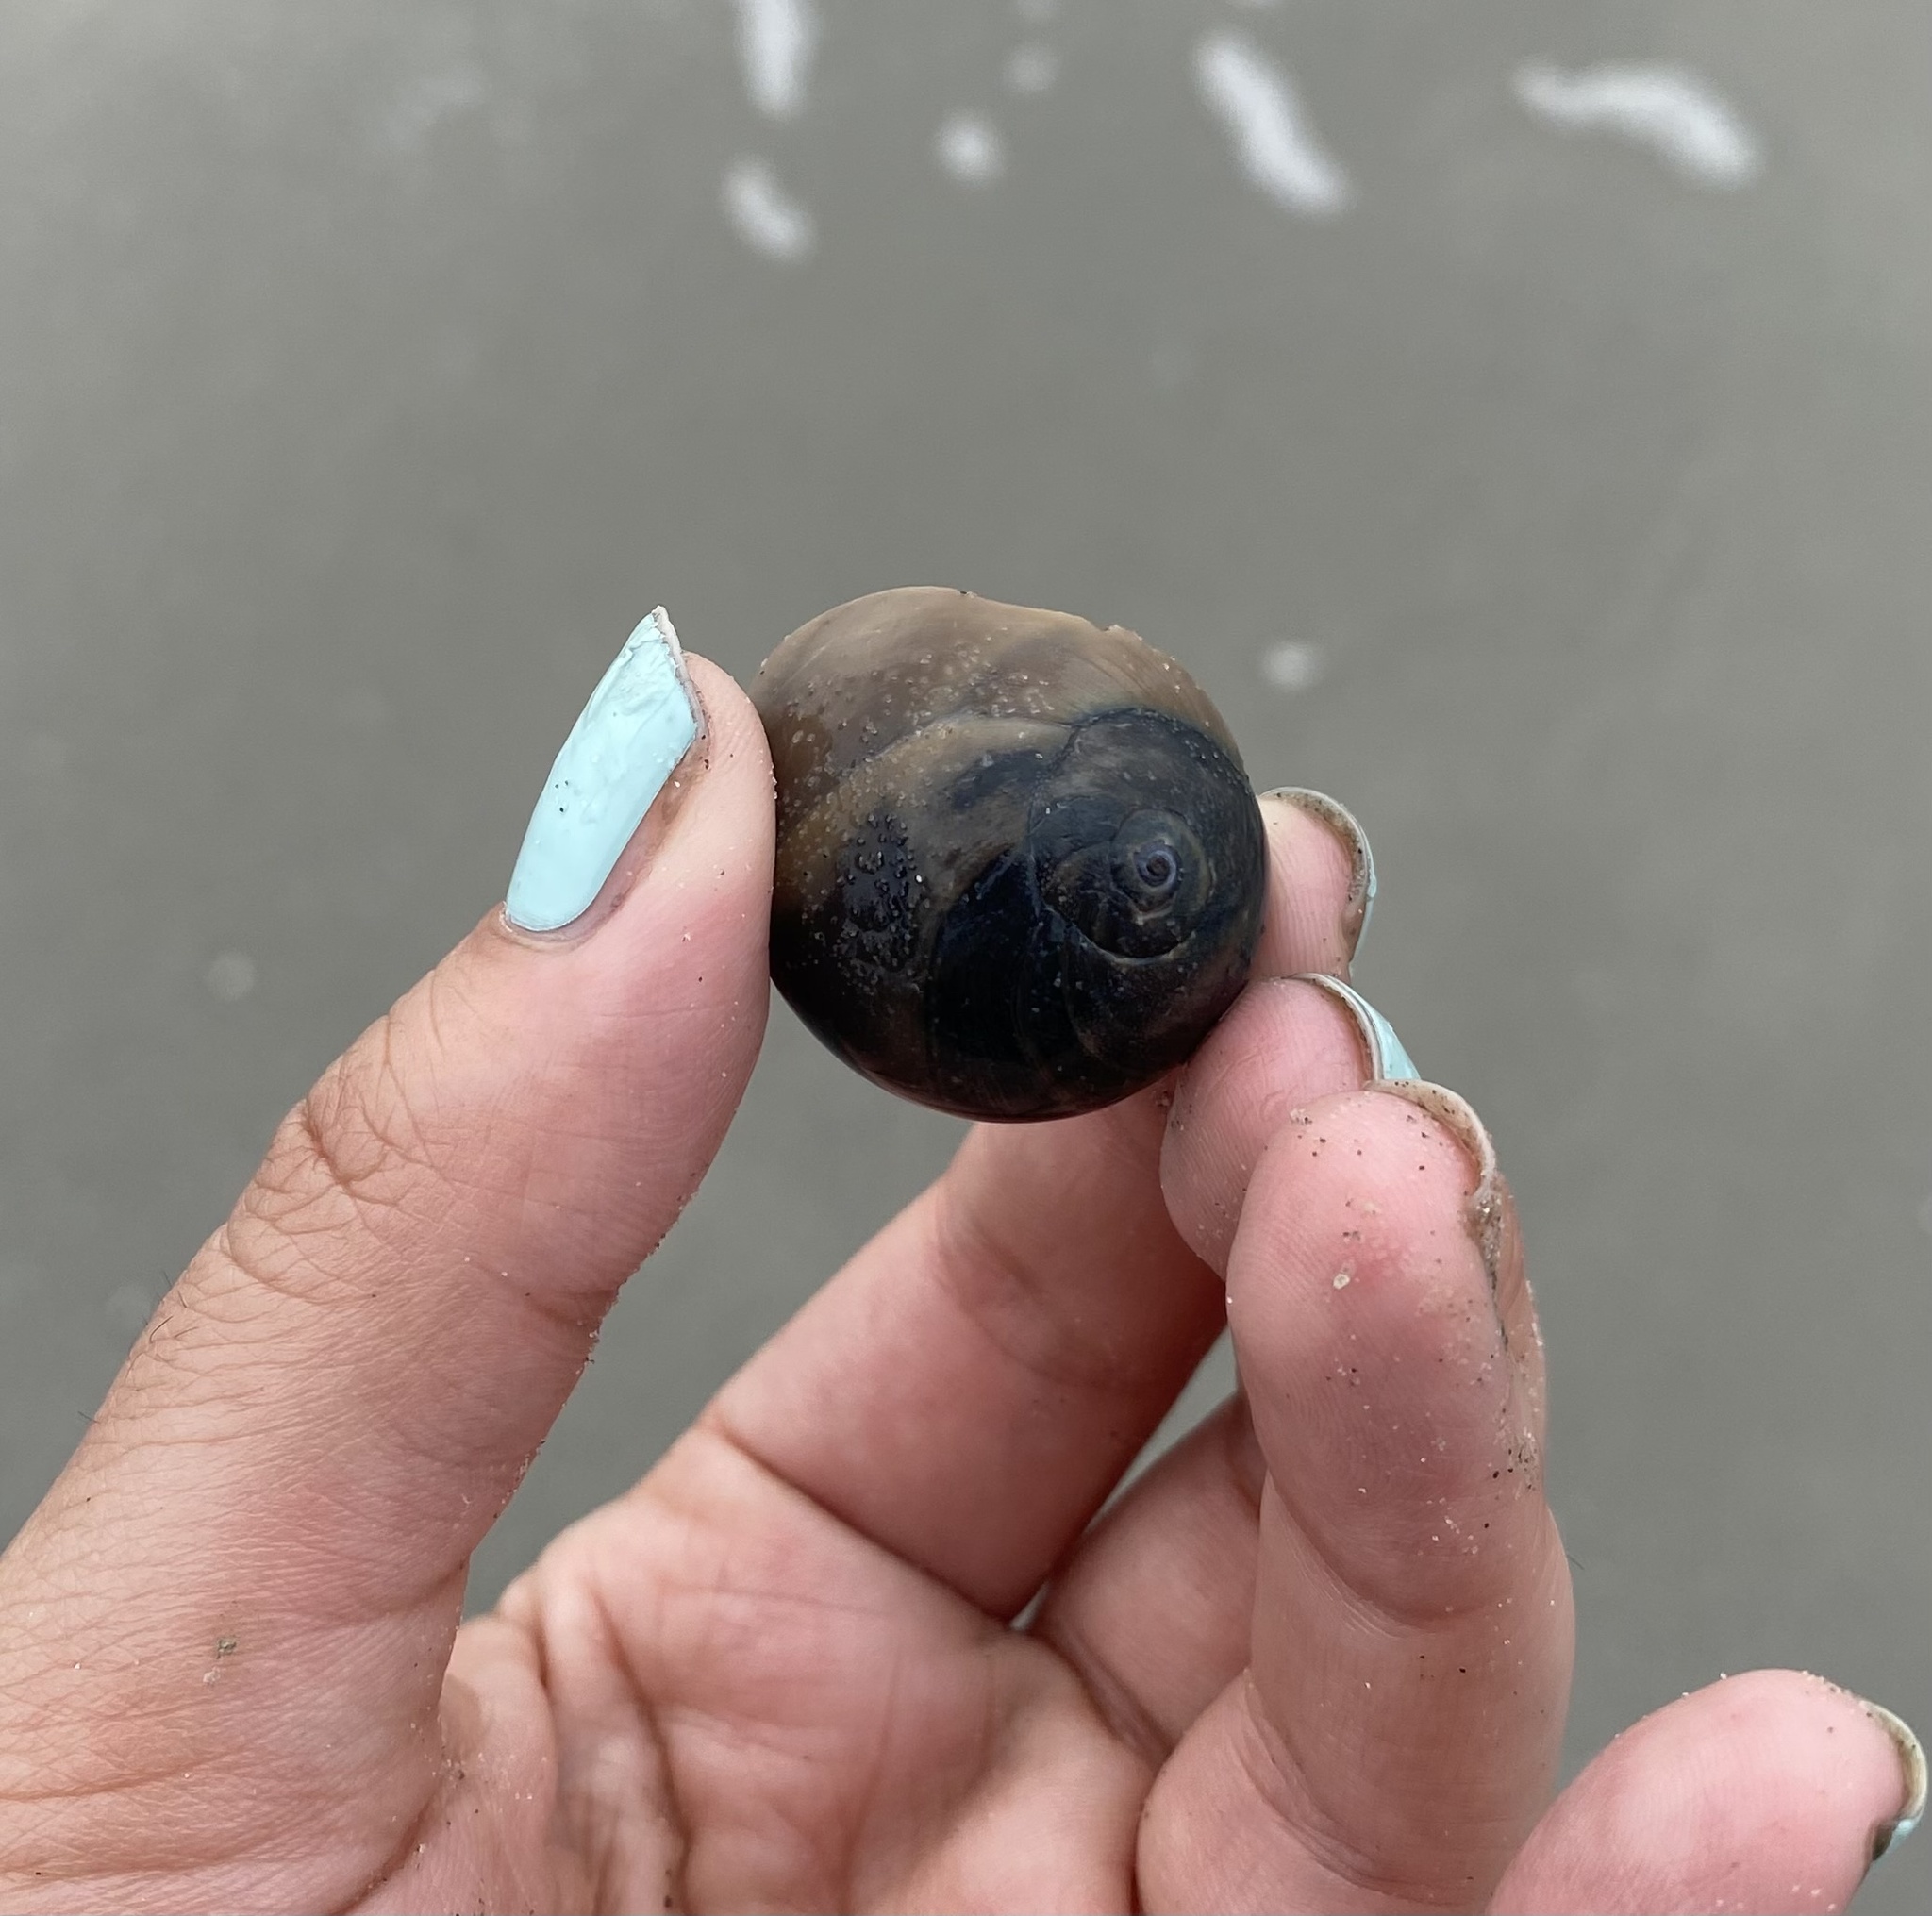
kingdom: Animalia
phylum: Arthropoda
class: Malacostraca
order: Decapoda
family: Paguridae
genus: Pagurus
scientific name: Pagurus longicarpus
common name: Long-armed hermit crab
